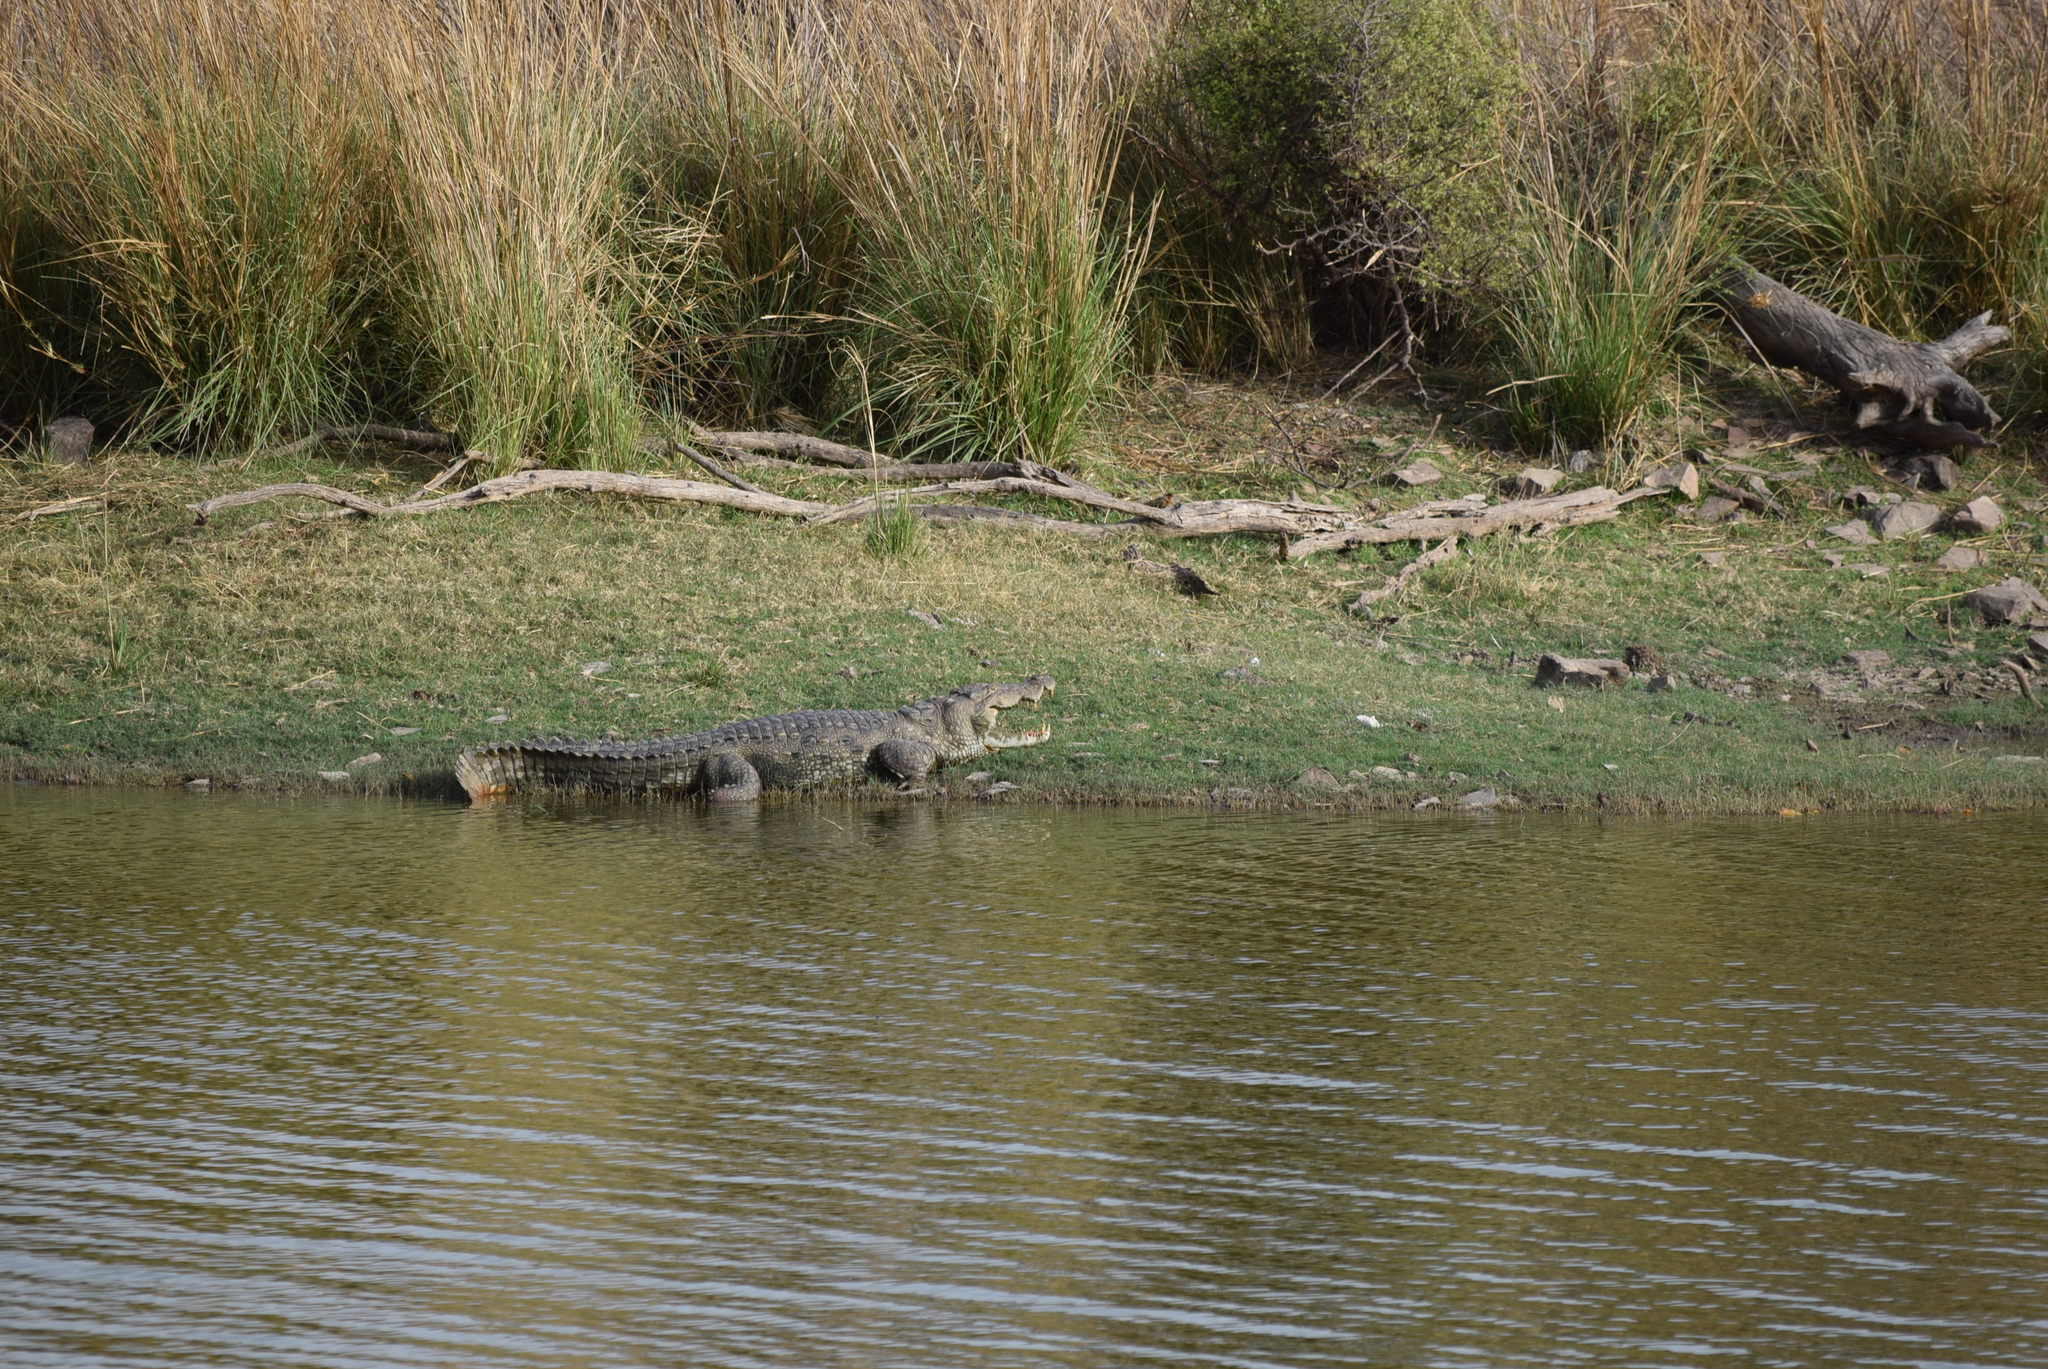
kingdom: Animalia
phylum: Chordata
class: Crocodylia
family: Crocodylidae
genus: Crocodylus
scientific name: Crocodylus palustris
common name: Mugger crocodile
